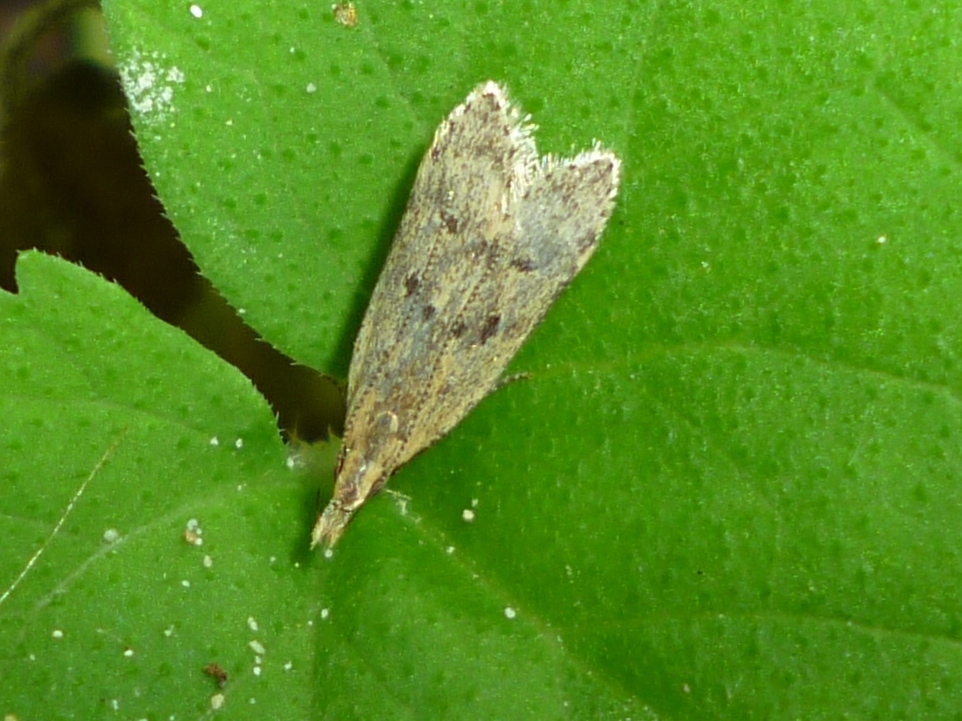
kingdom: Animalia
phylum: Arthropoda
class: Insecta
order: Lepidoptera
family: Gelechiidae
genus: Dichomeris
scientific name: Dichomeris punctipennella
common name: Many-spotted dichomeris moth
